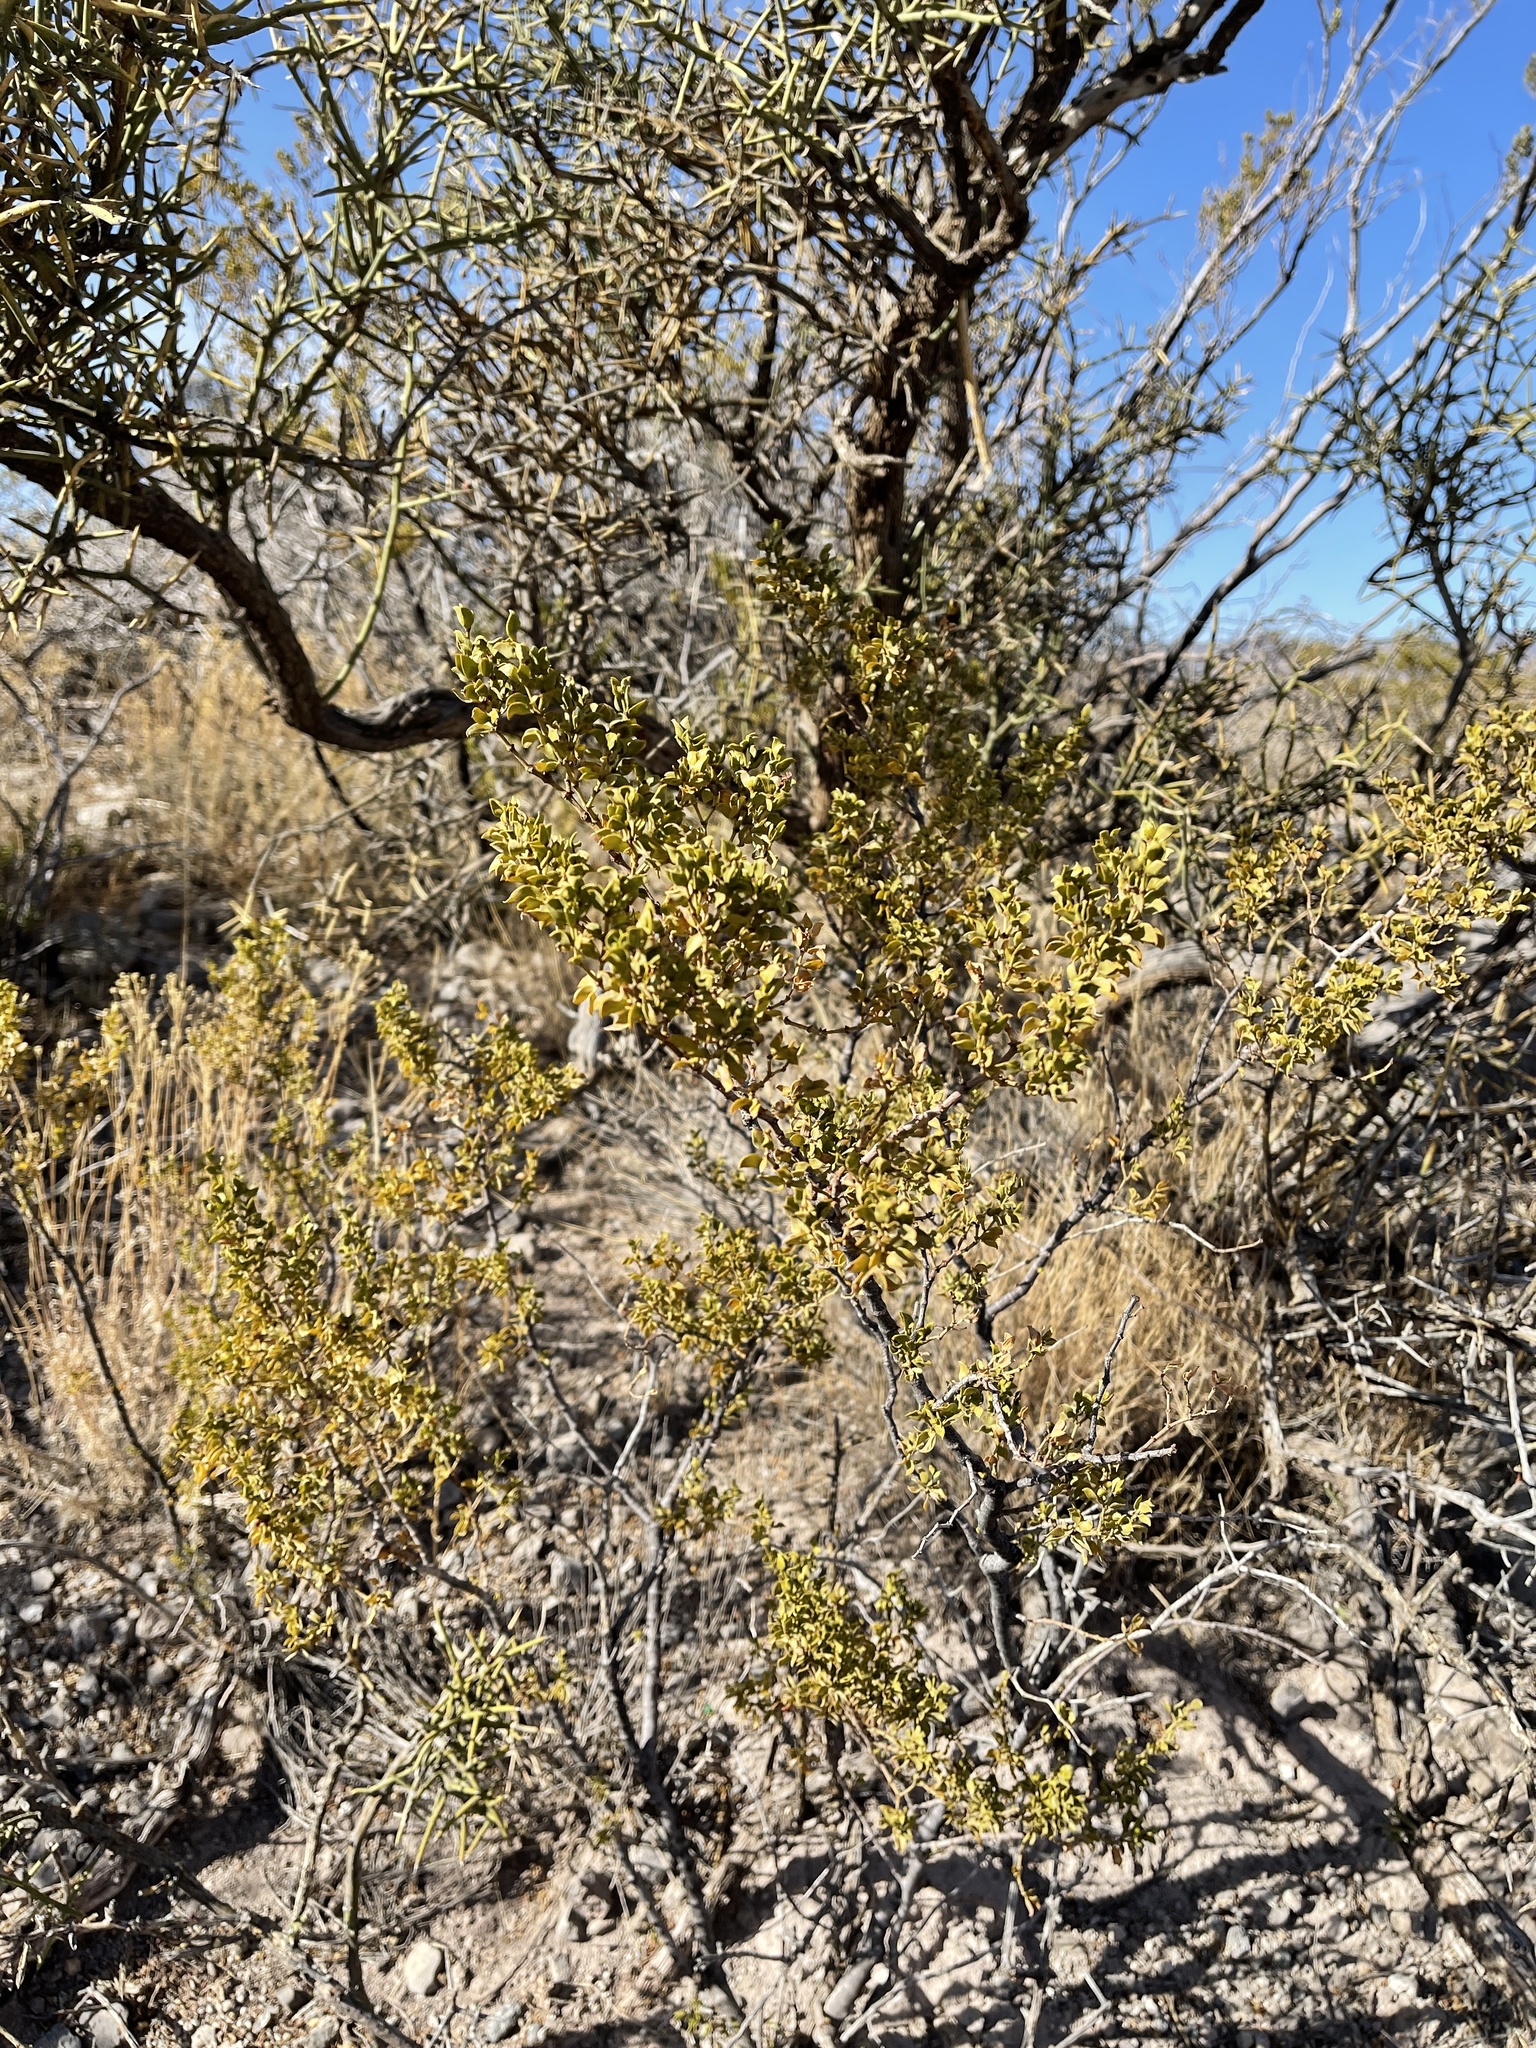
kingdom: Plantae
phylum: Tracheophyta
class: Magnoliopsida
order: Zygophyllales
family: Zygophyllaceae
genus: Larrea
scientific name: Larrea tridentata
